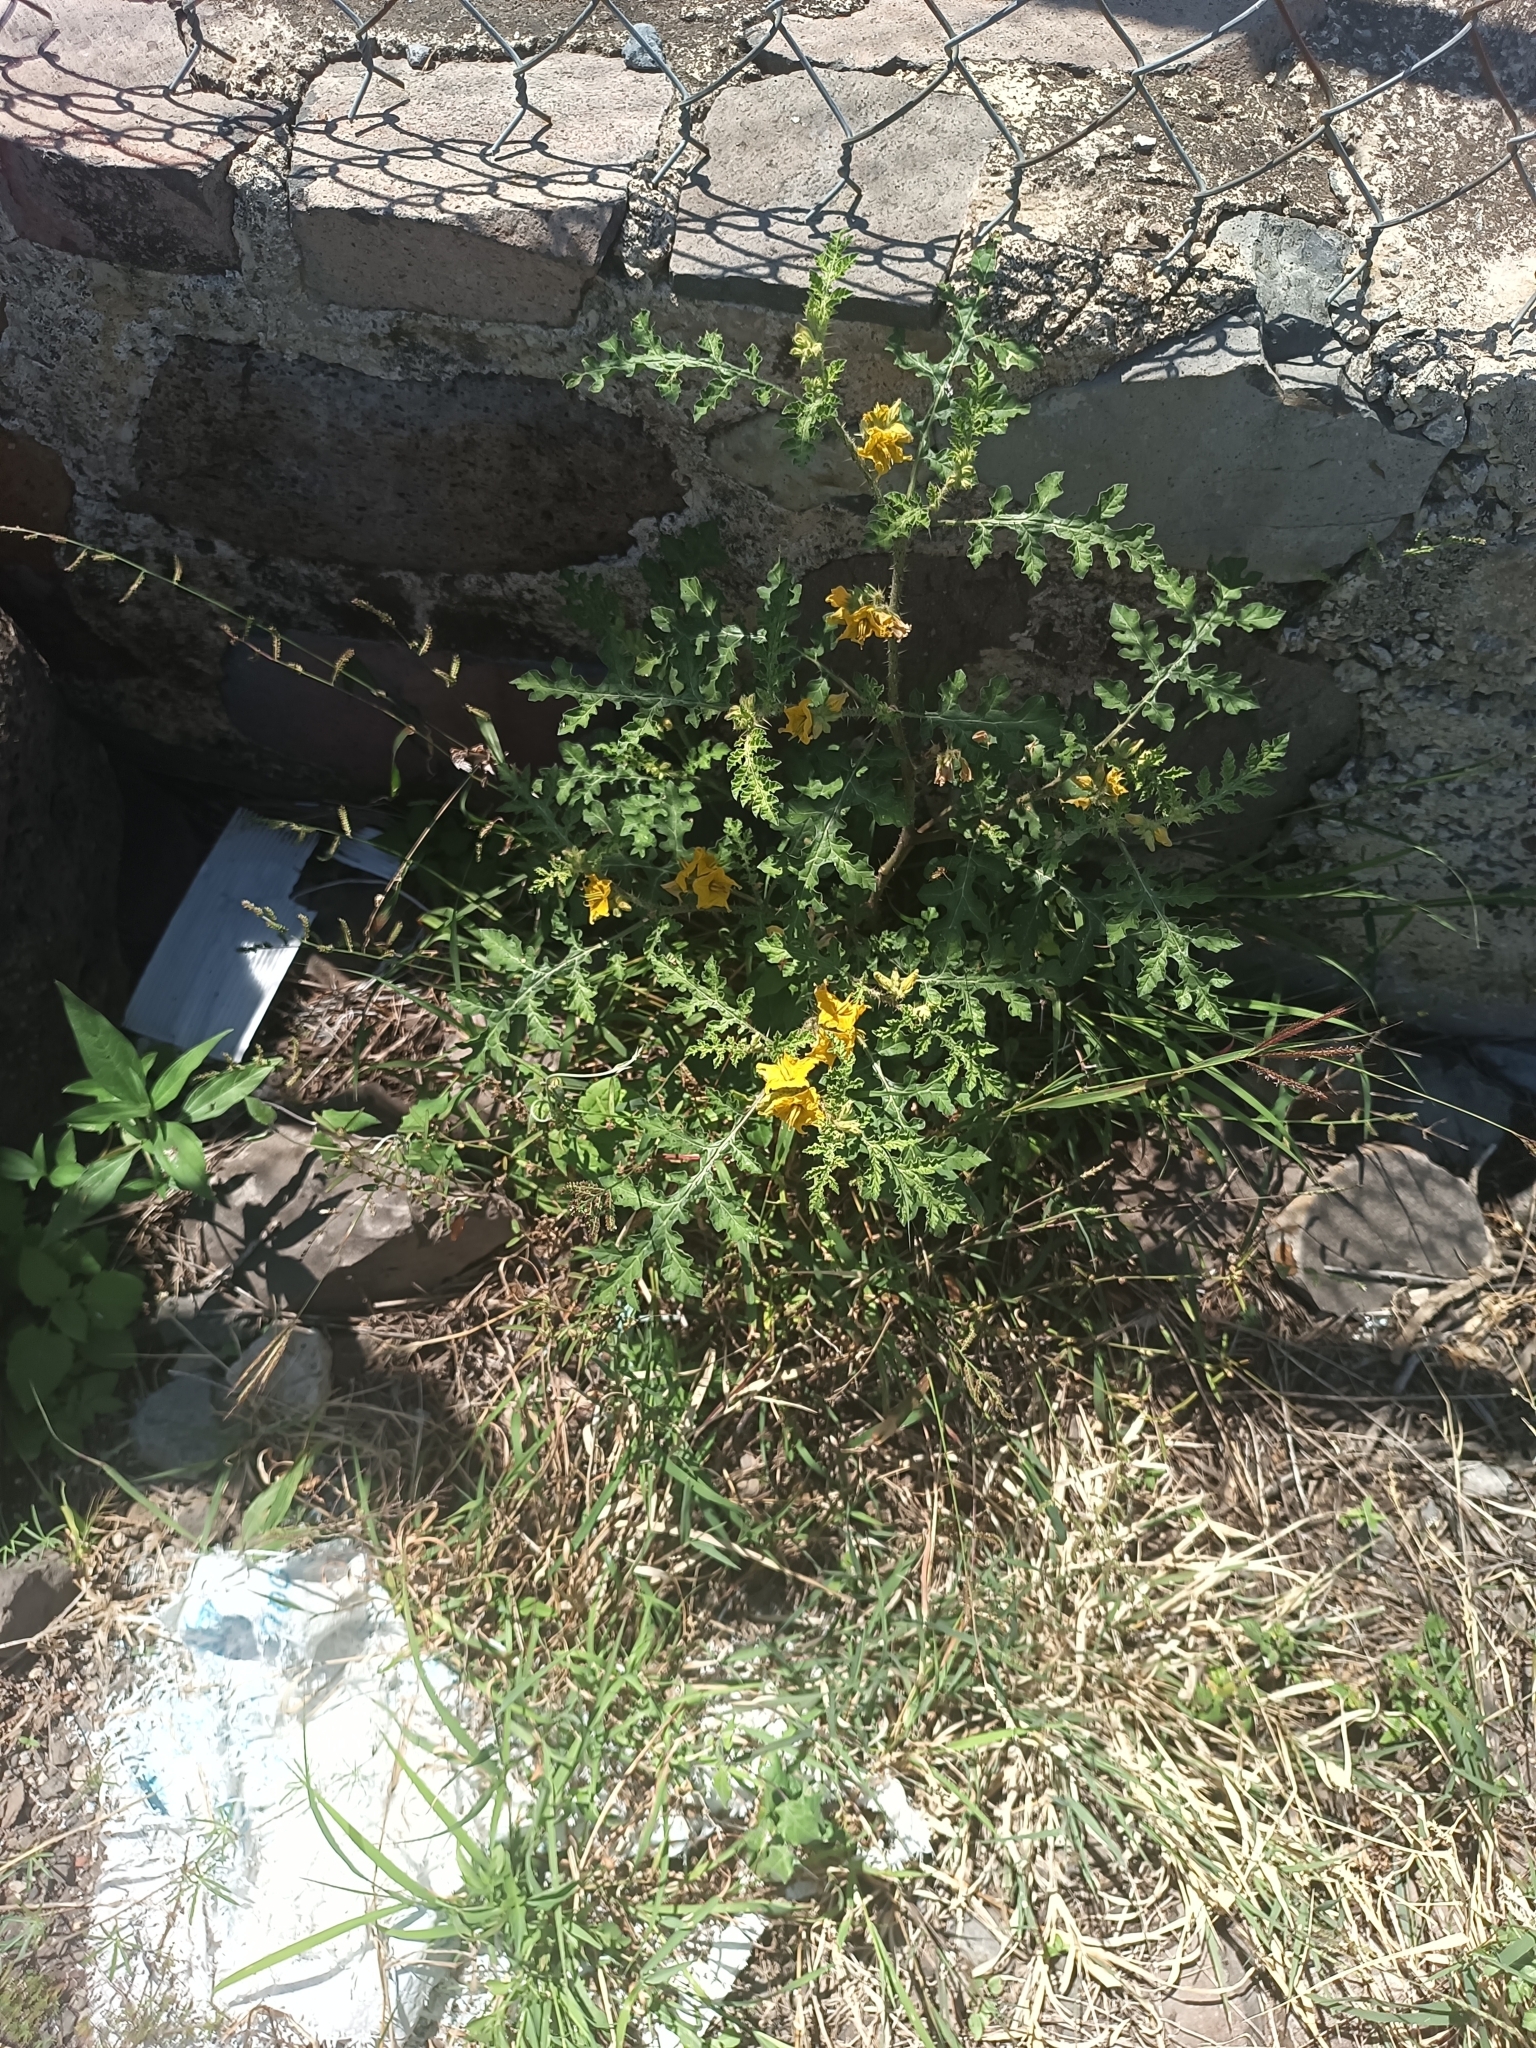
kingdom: Plantae
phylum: Tracheophyta
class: Magnoliopsida
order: Solanales
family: Solanaceae
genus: Solanum
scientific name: Solanum angustifolium
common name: Buffalobur nightshade
